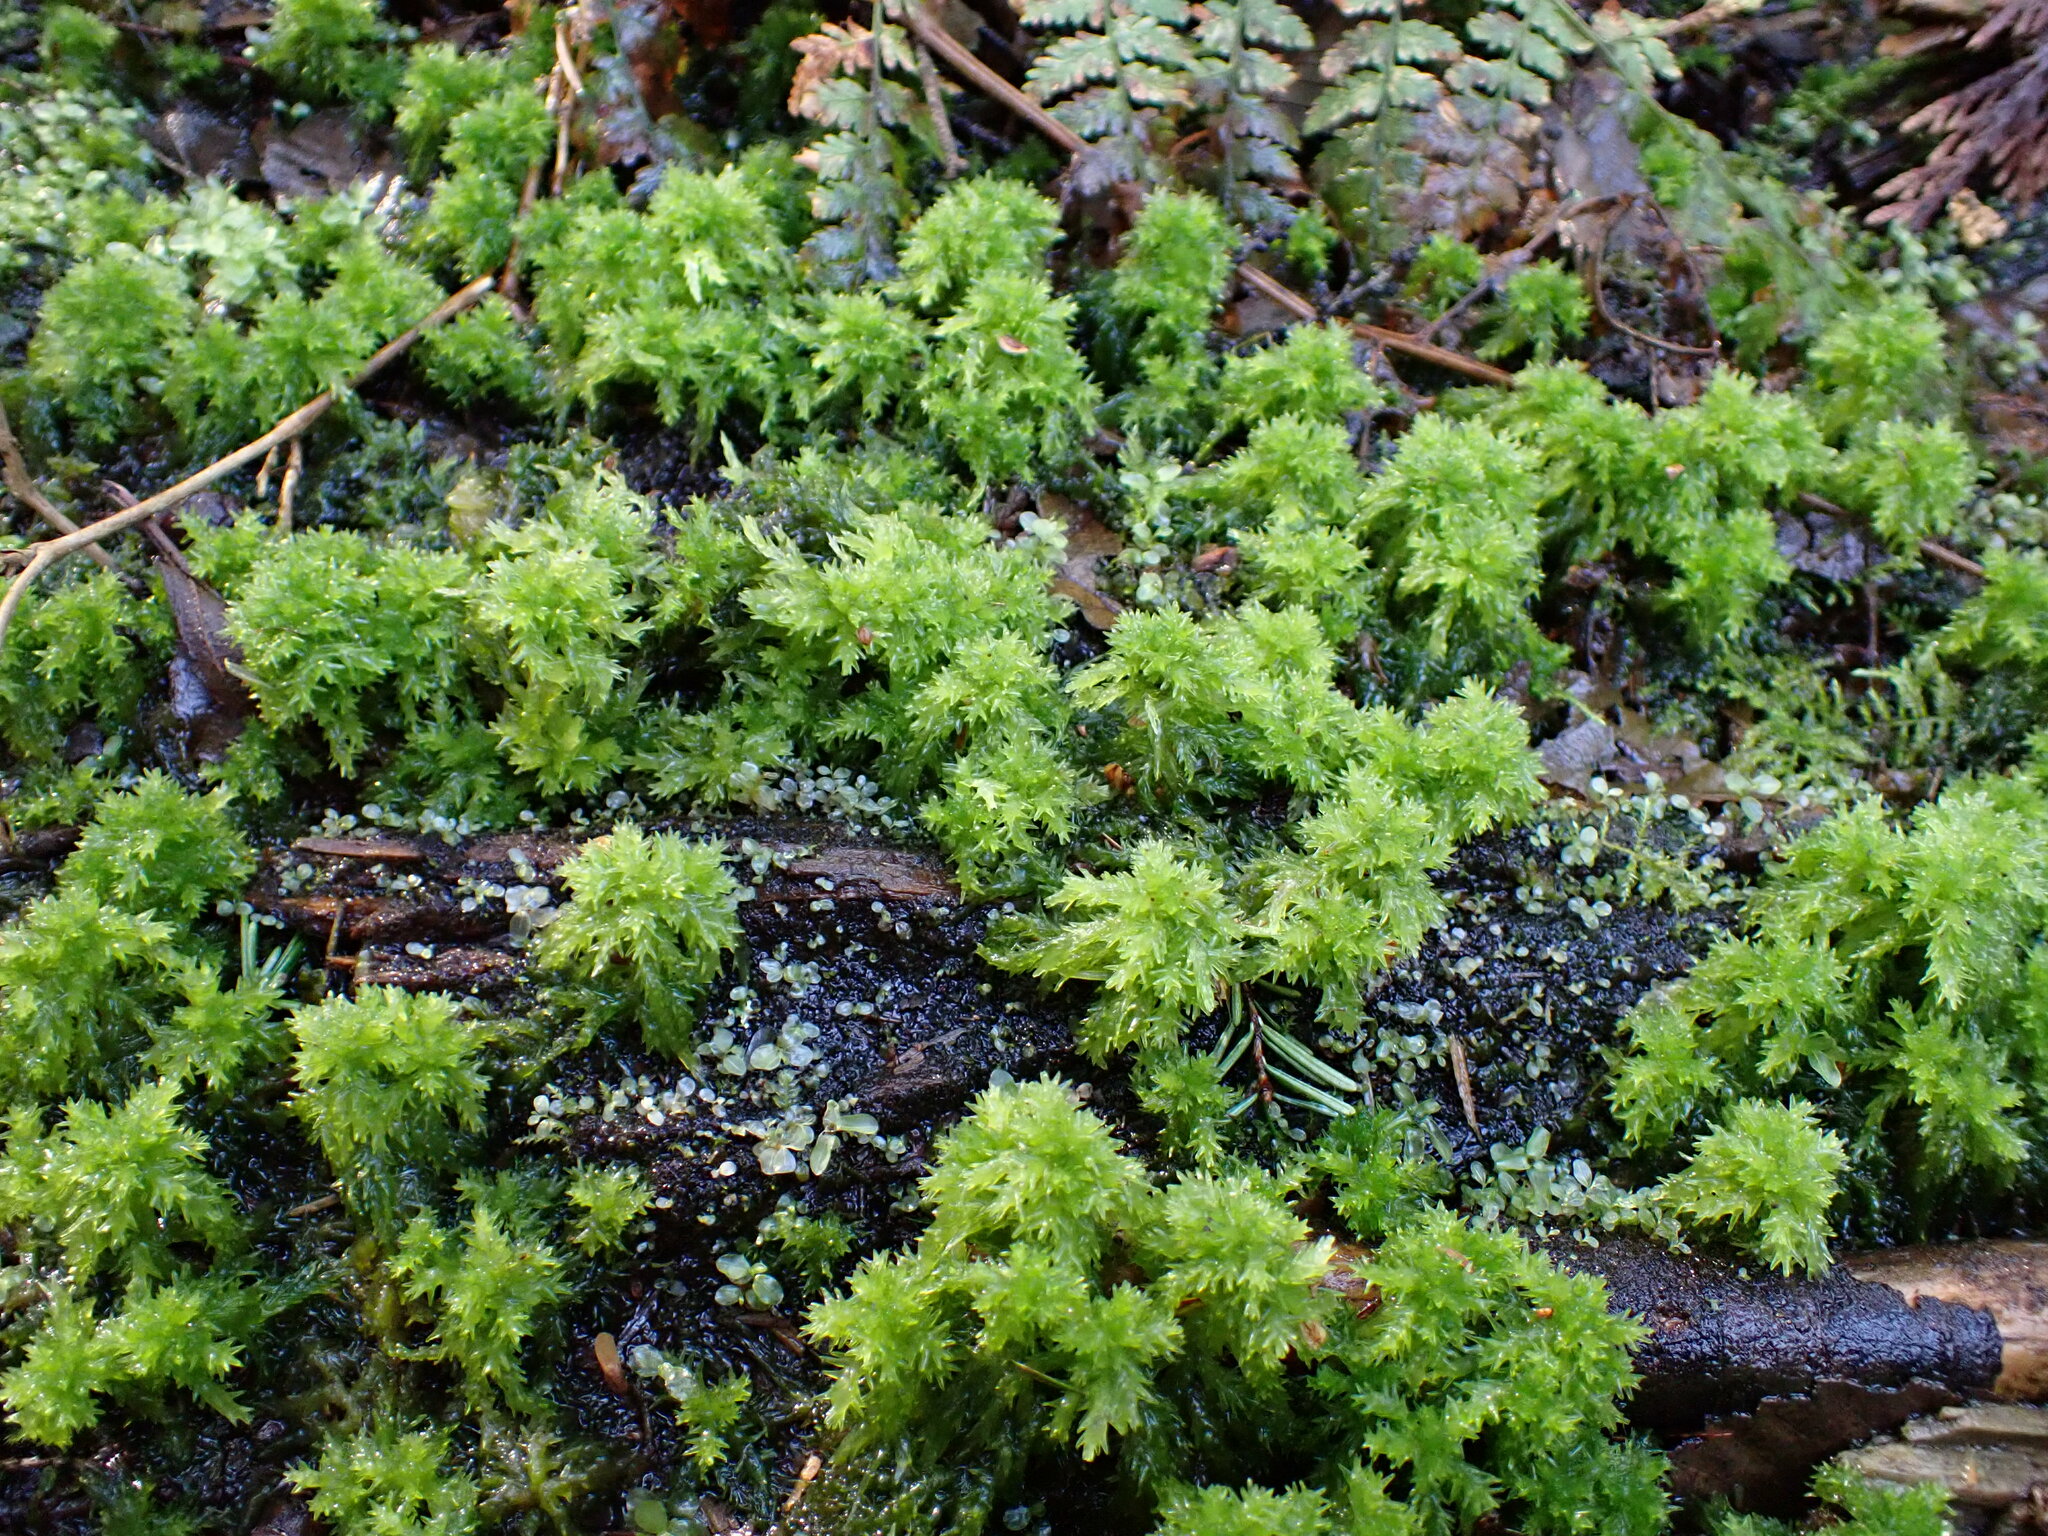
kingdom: Plantae
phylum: Bryophyta
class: Sphagnopsida
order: Sphagnales
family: Sphagnaceae
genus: Sphagnum
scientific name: Sphagnum palustre
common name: Blunt-leaved bog-moss
